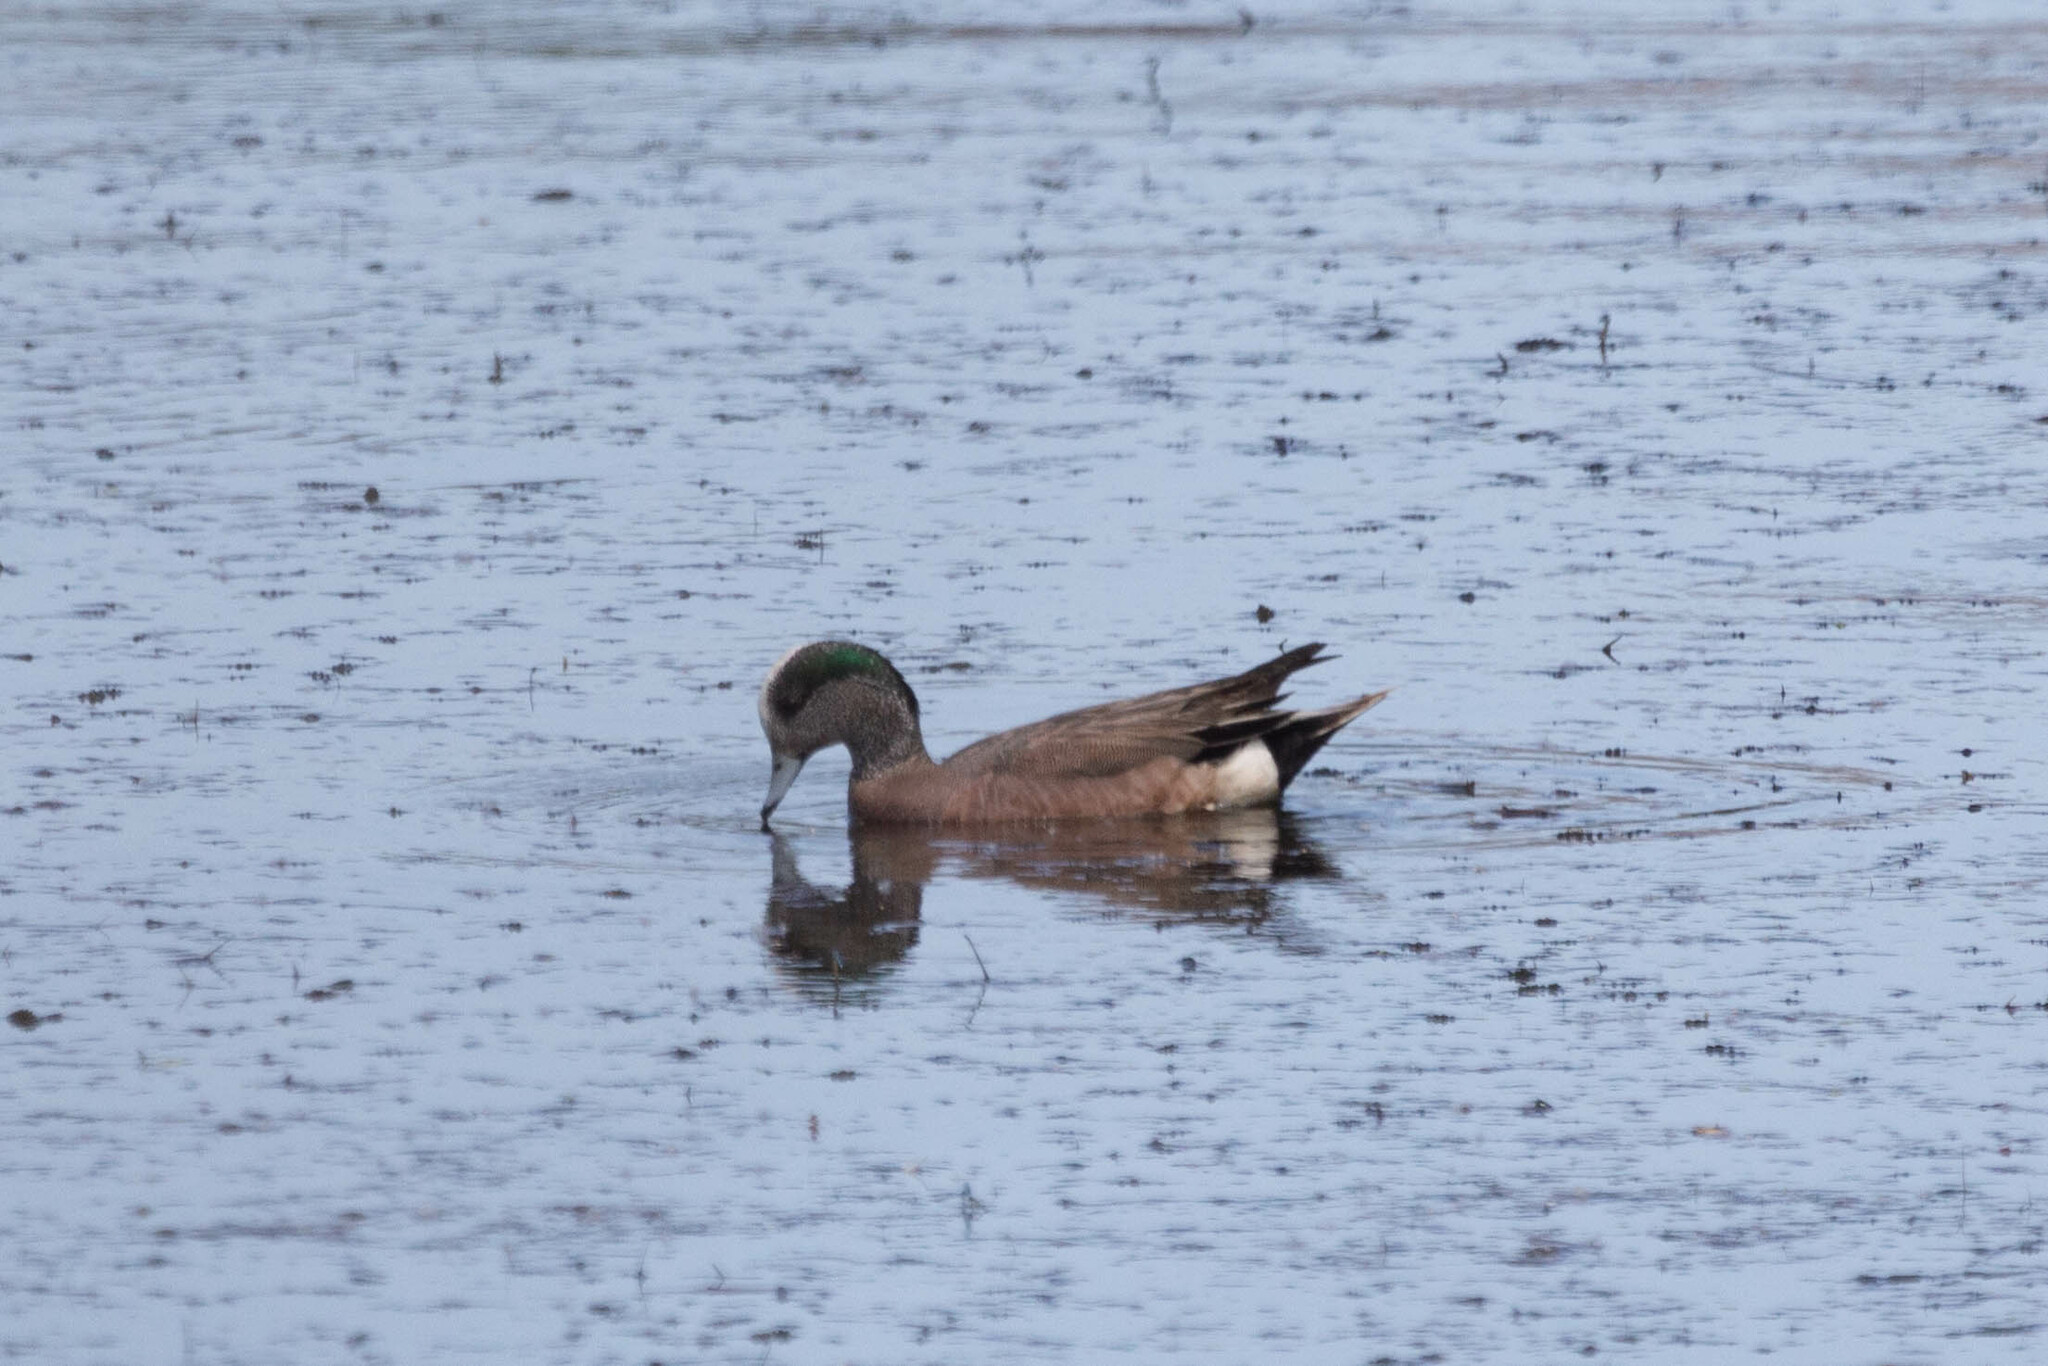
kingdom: Animalia
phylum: Chordata
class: Aves
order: Anseriformes
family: Anatidae
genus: Mareca
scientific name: Mareca americana
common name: American wigeon
